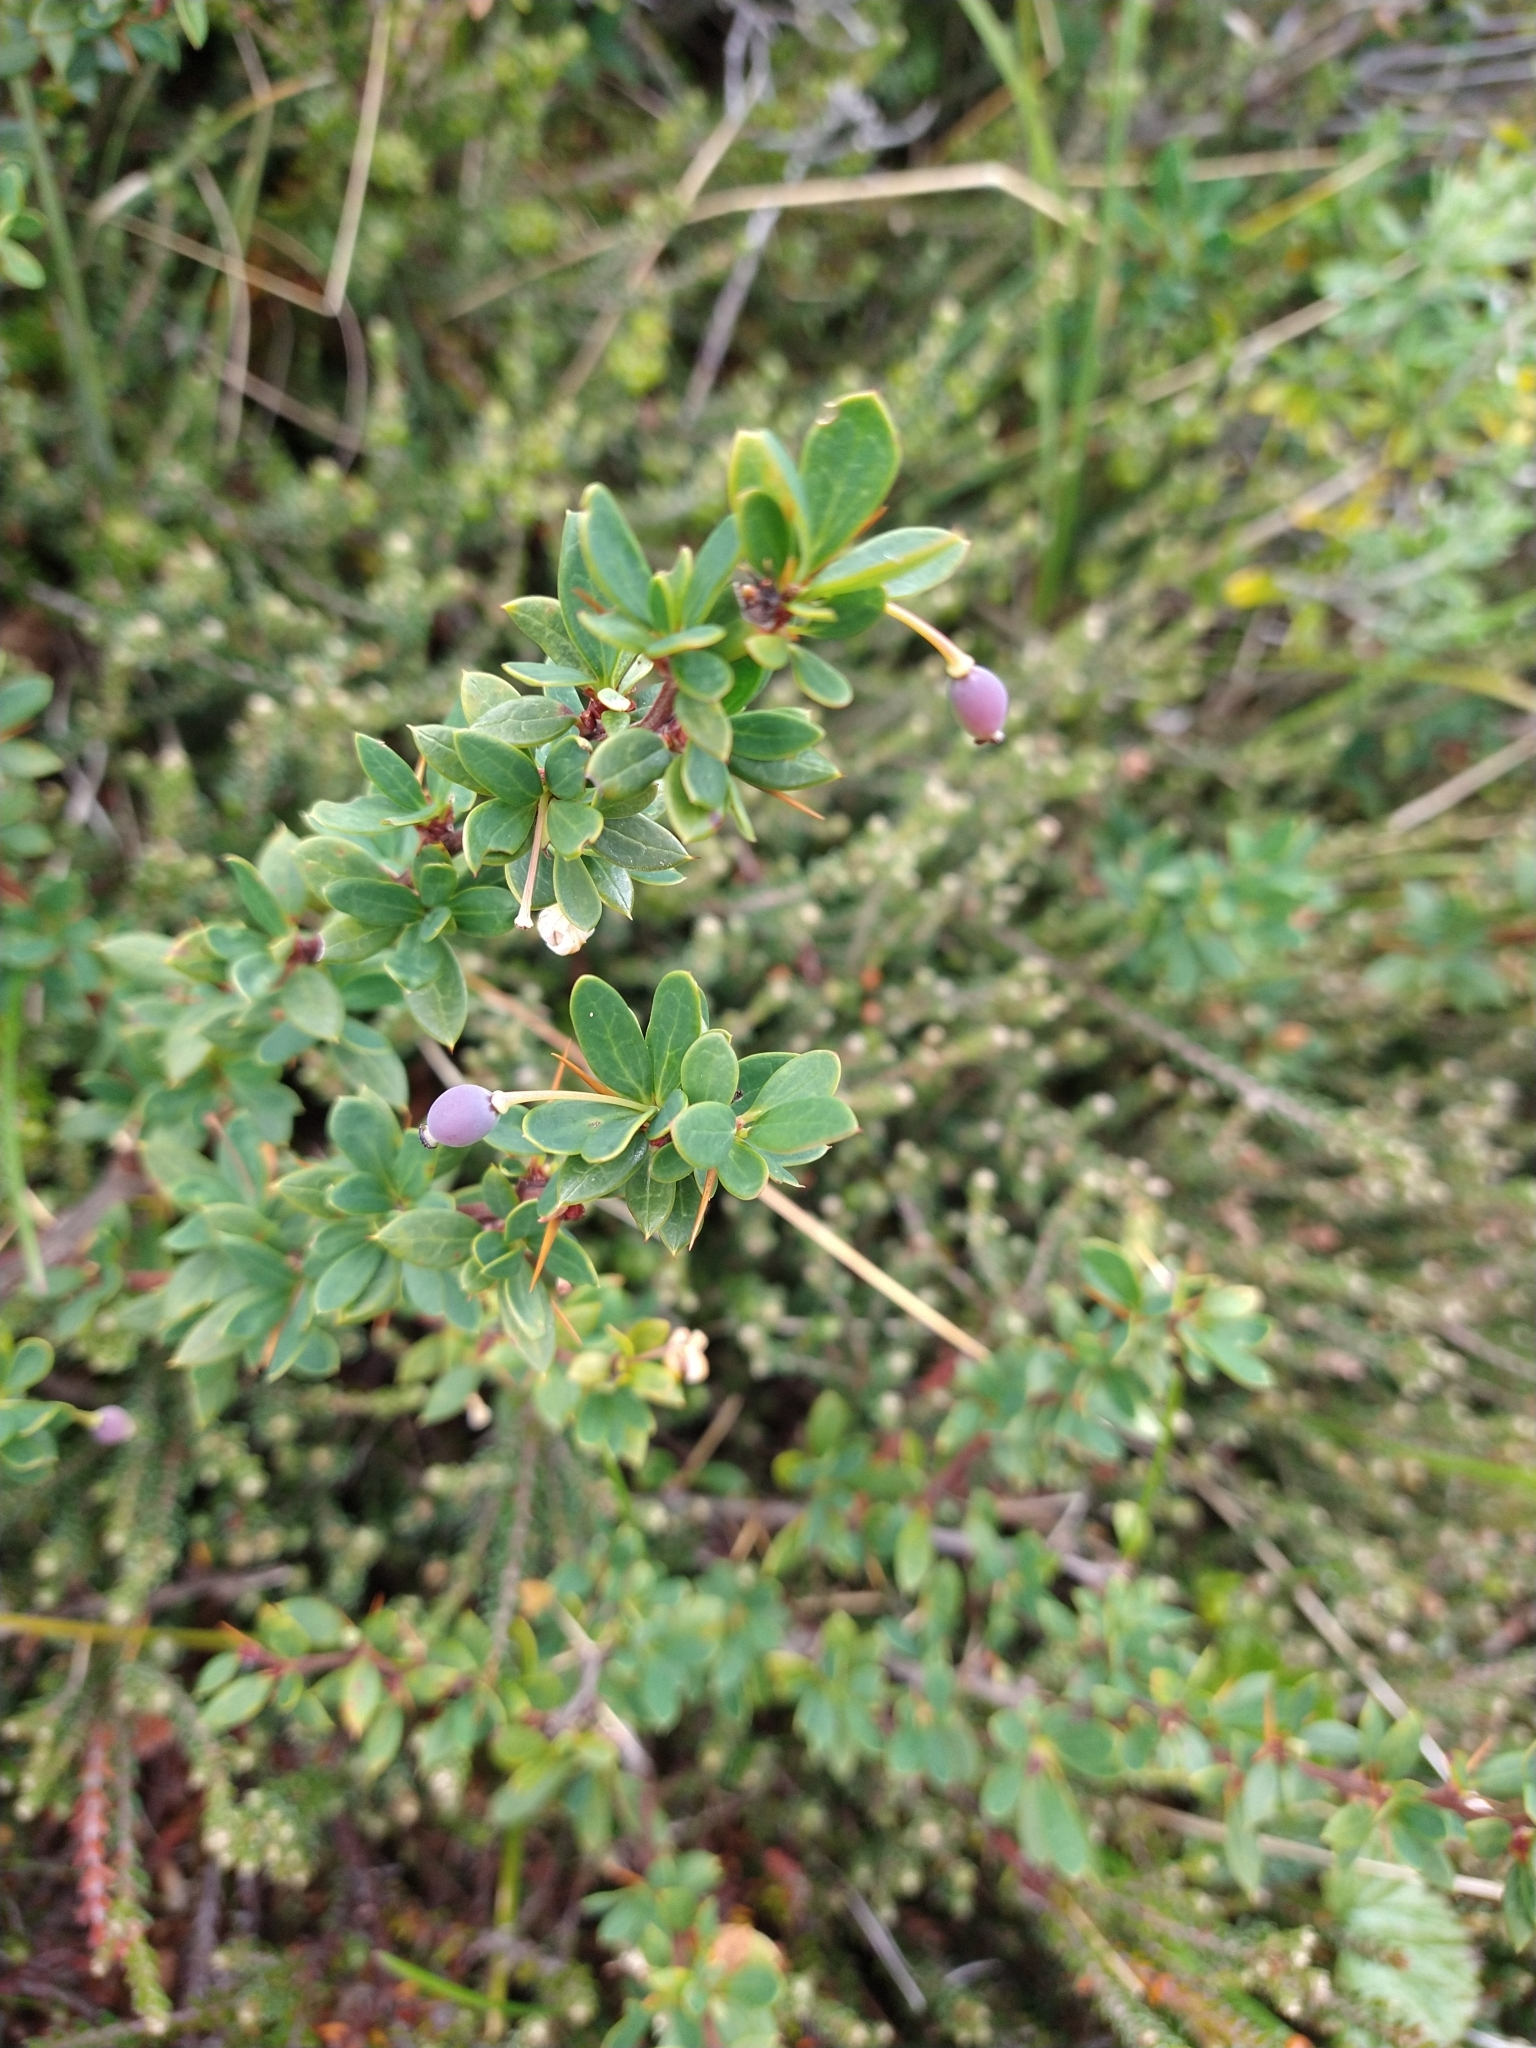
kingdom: Plantae
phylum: Tracheophyta
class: Magnoliopsida
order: Ranunculales
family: Berberidaceae
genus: Berberis
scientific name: Berberis microphylla
